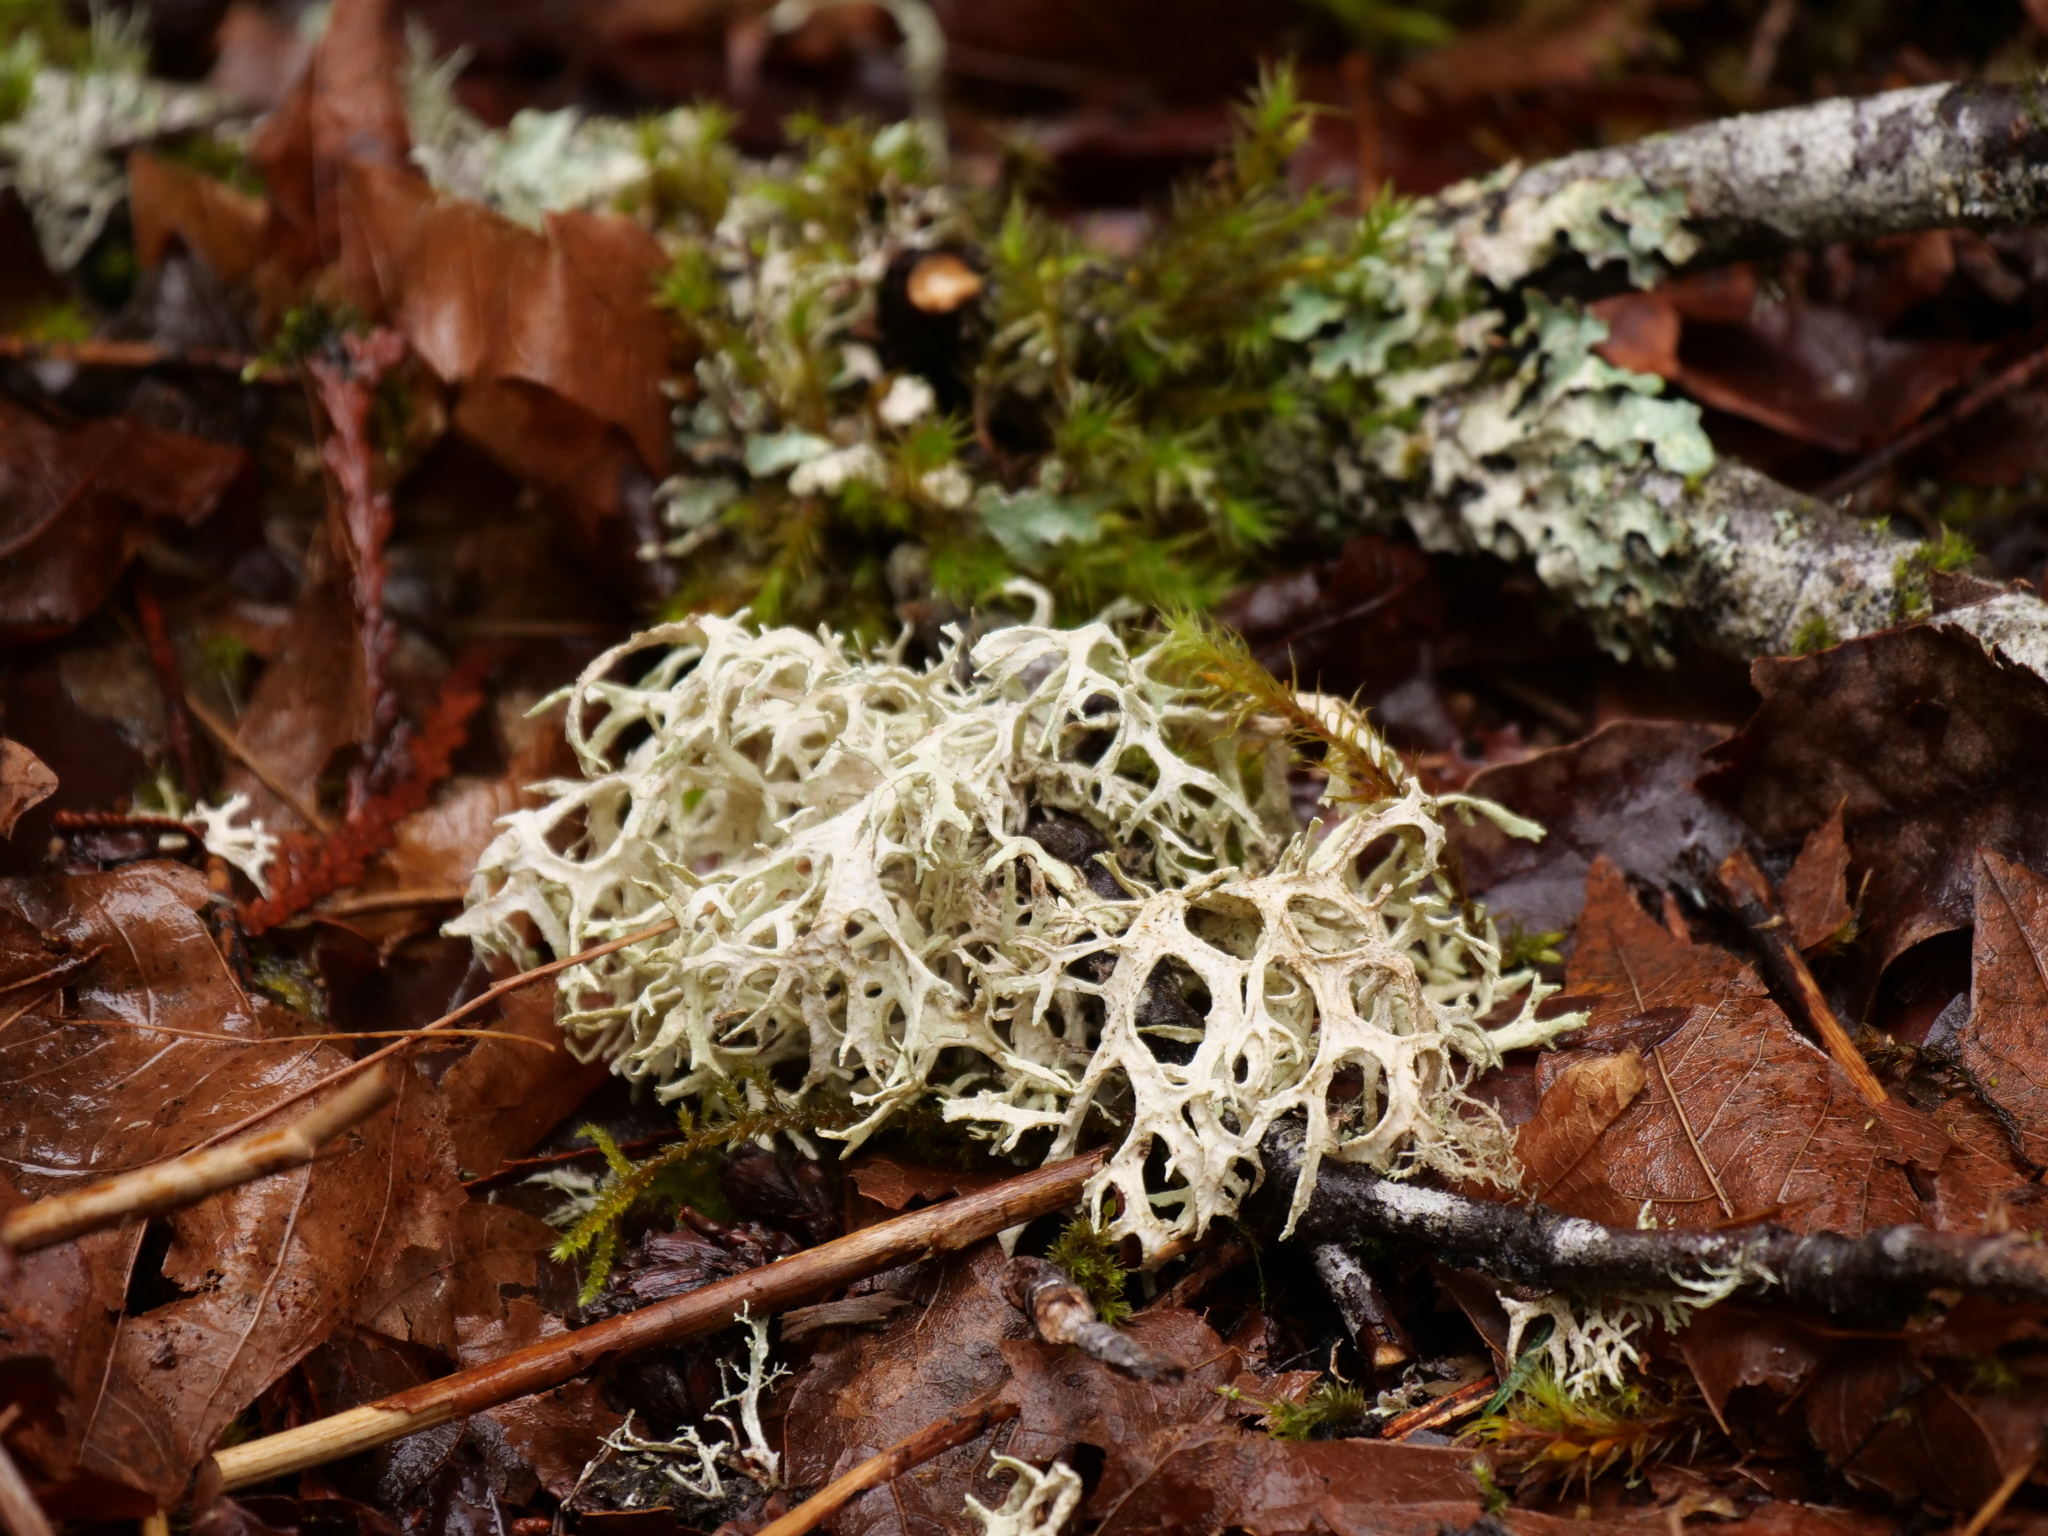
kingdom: Fungi
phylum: Ascomycota
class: Lecanoromycetes
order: Lecanorales
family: Parmeliaceae
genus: Evernia
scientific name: Evernia prunastri
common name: Oak moss
